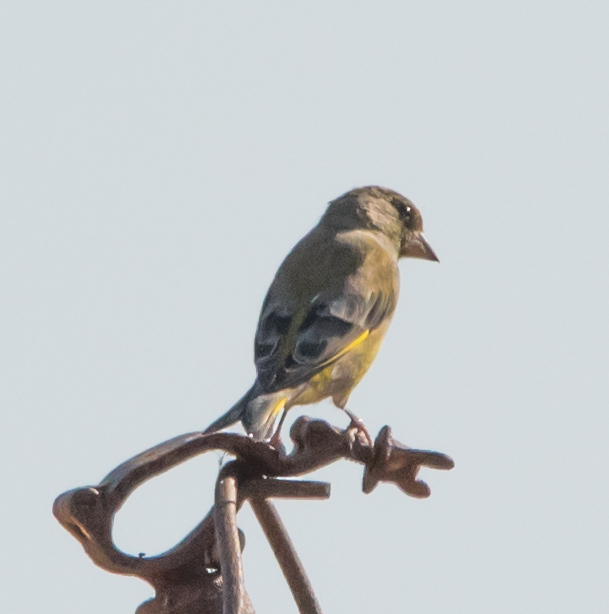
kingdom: Plantae
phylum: Tracheophyta
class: Liliopsida
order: Poales
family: Poaceae
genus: Chloris
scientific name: Chloris chloris
